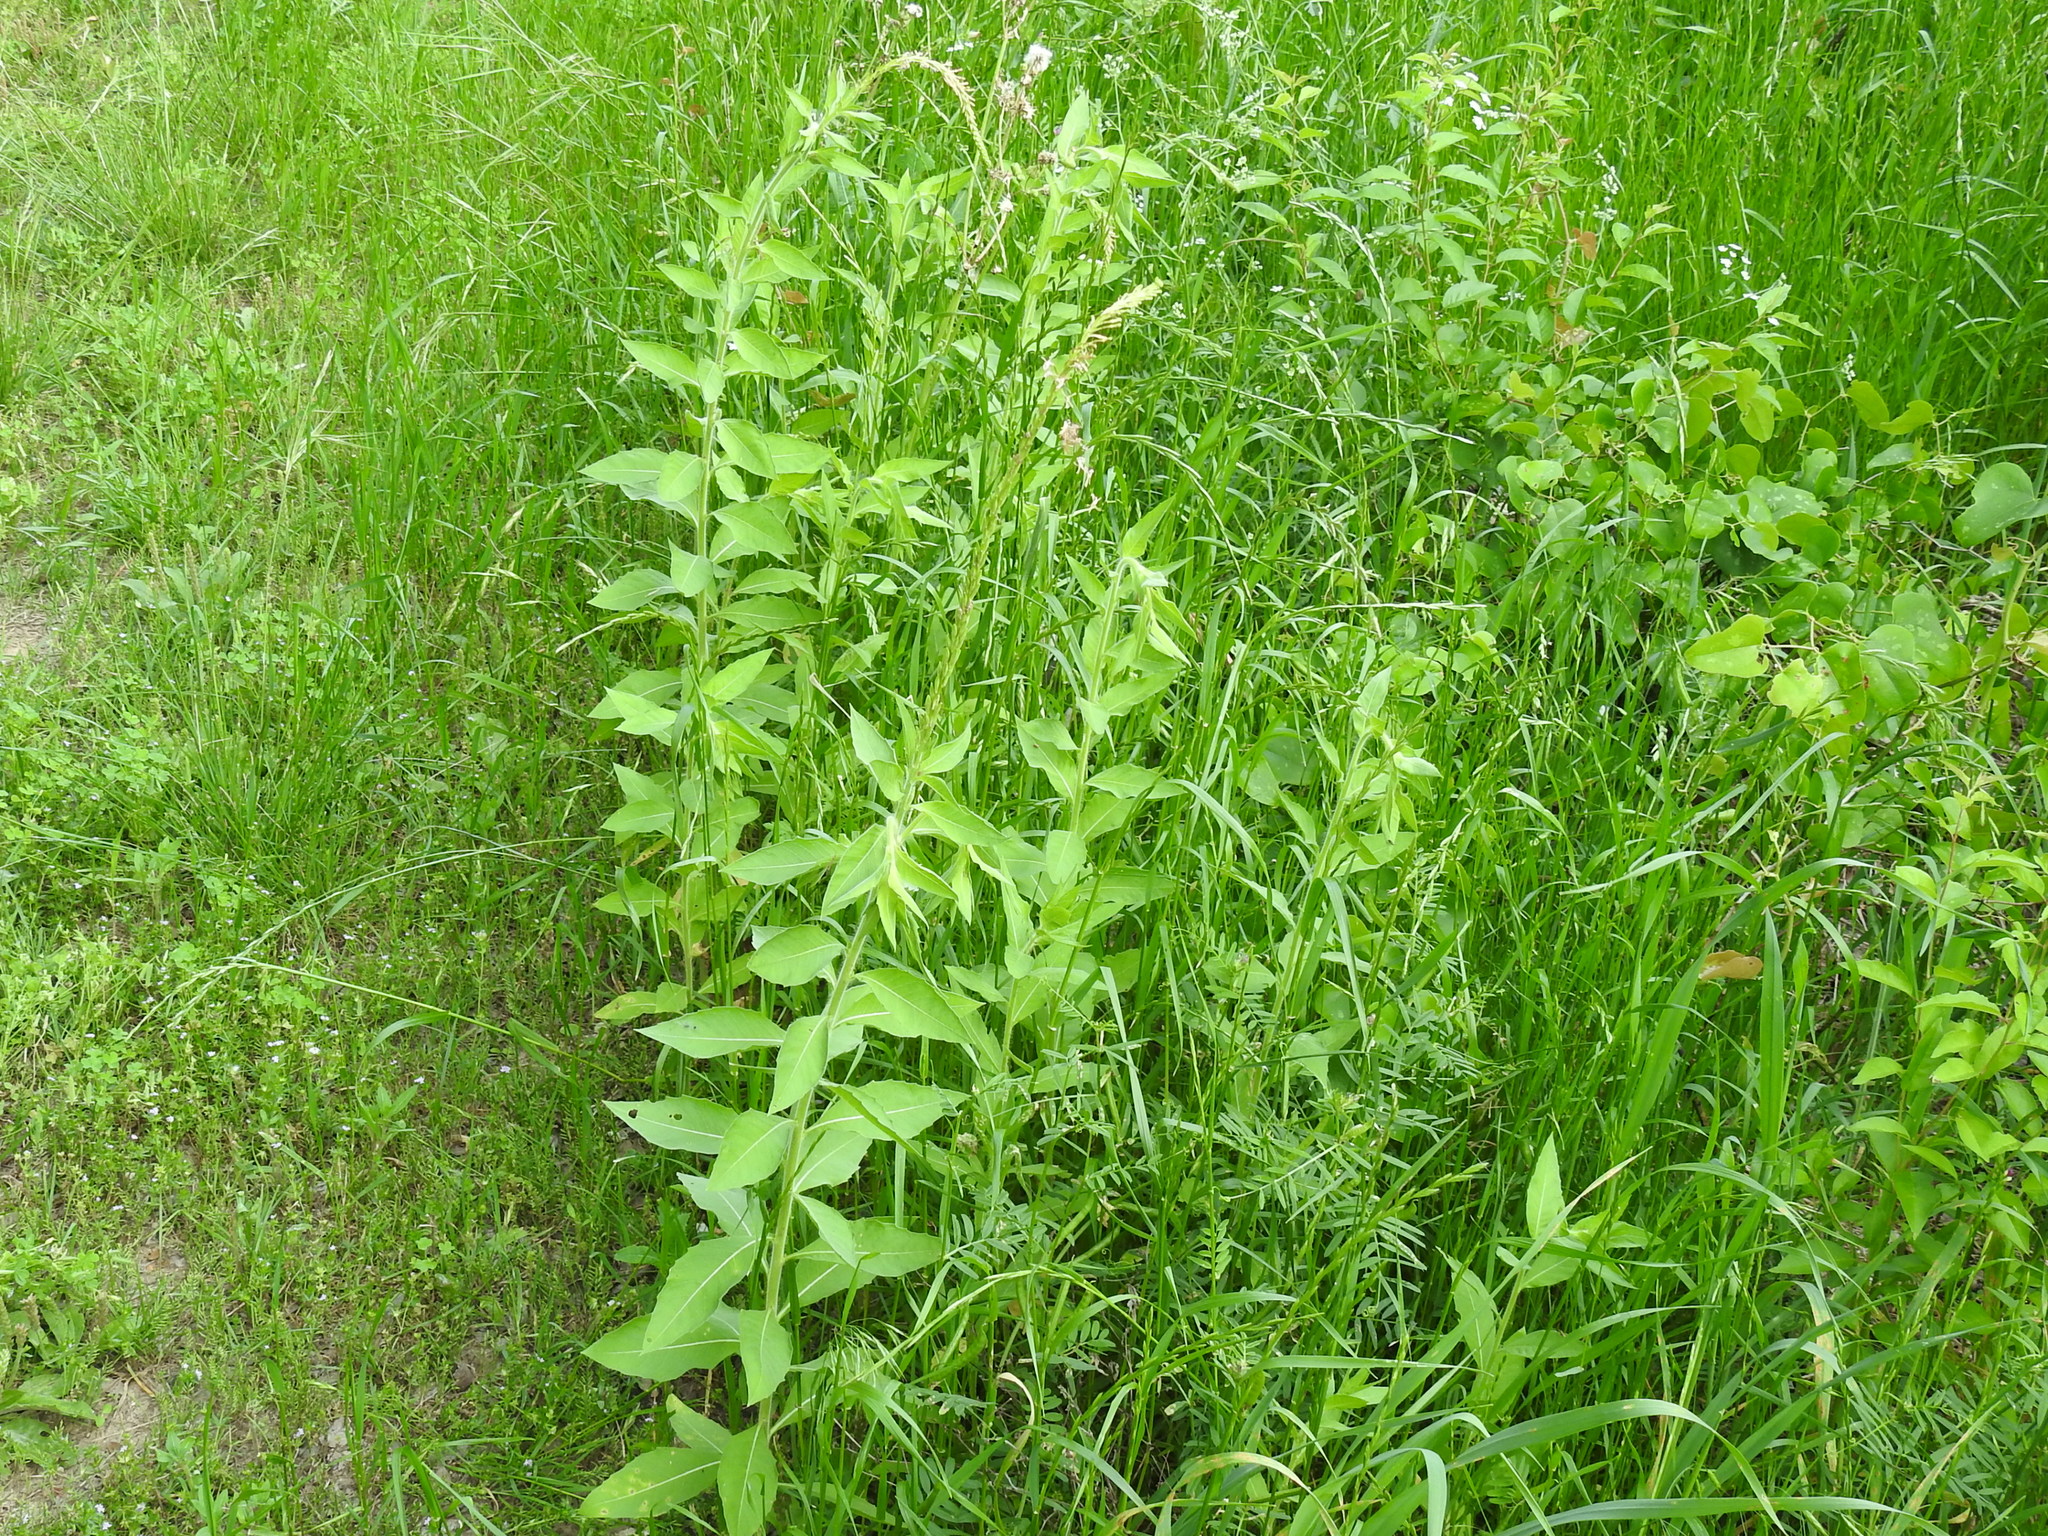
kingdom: Plantae
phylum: Tracheophyta
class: Magnoliopsida
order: Myrtales
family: Onagraceae
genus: Oenothera
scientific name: Oenothera curtiflora
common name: Velvetweed
